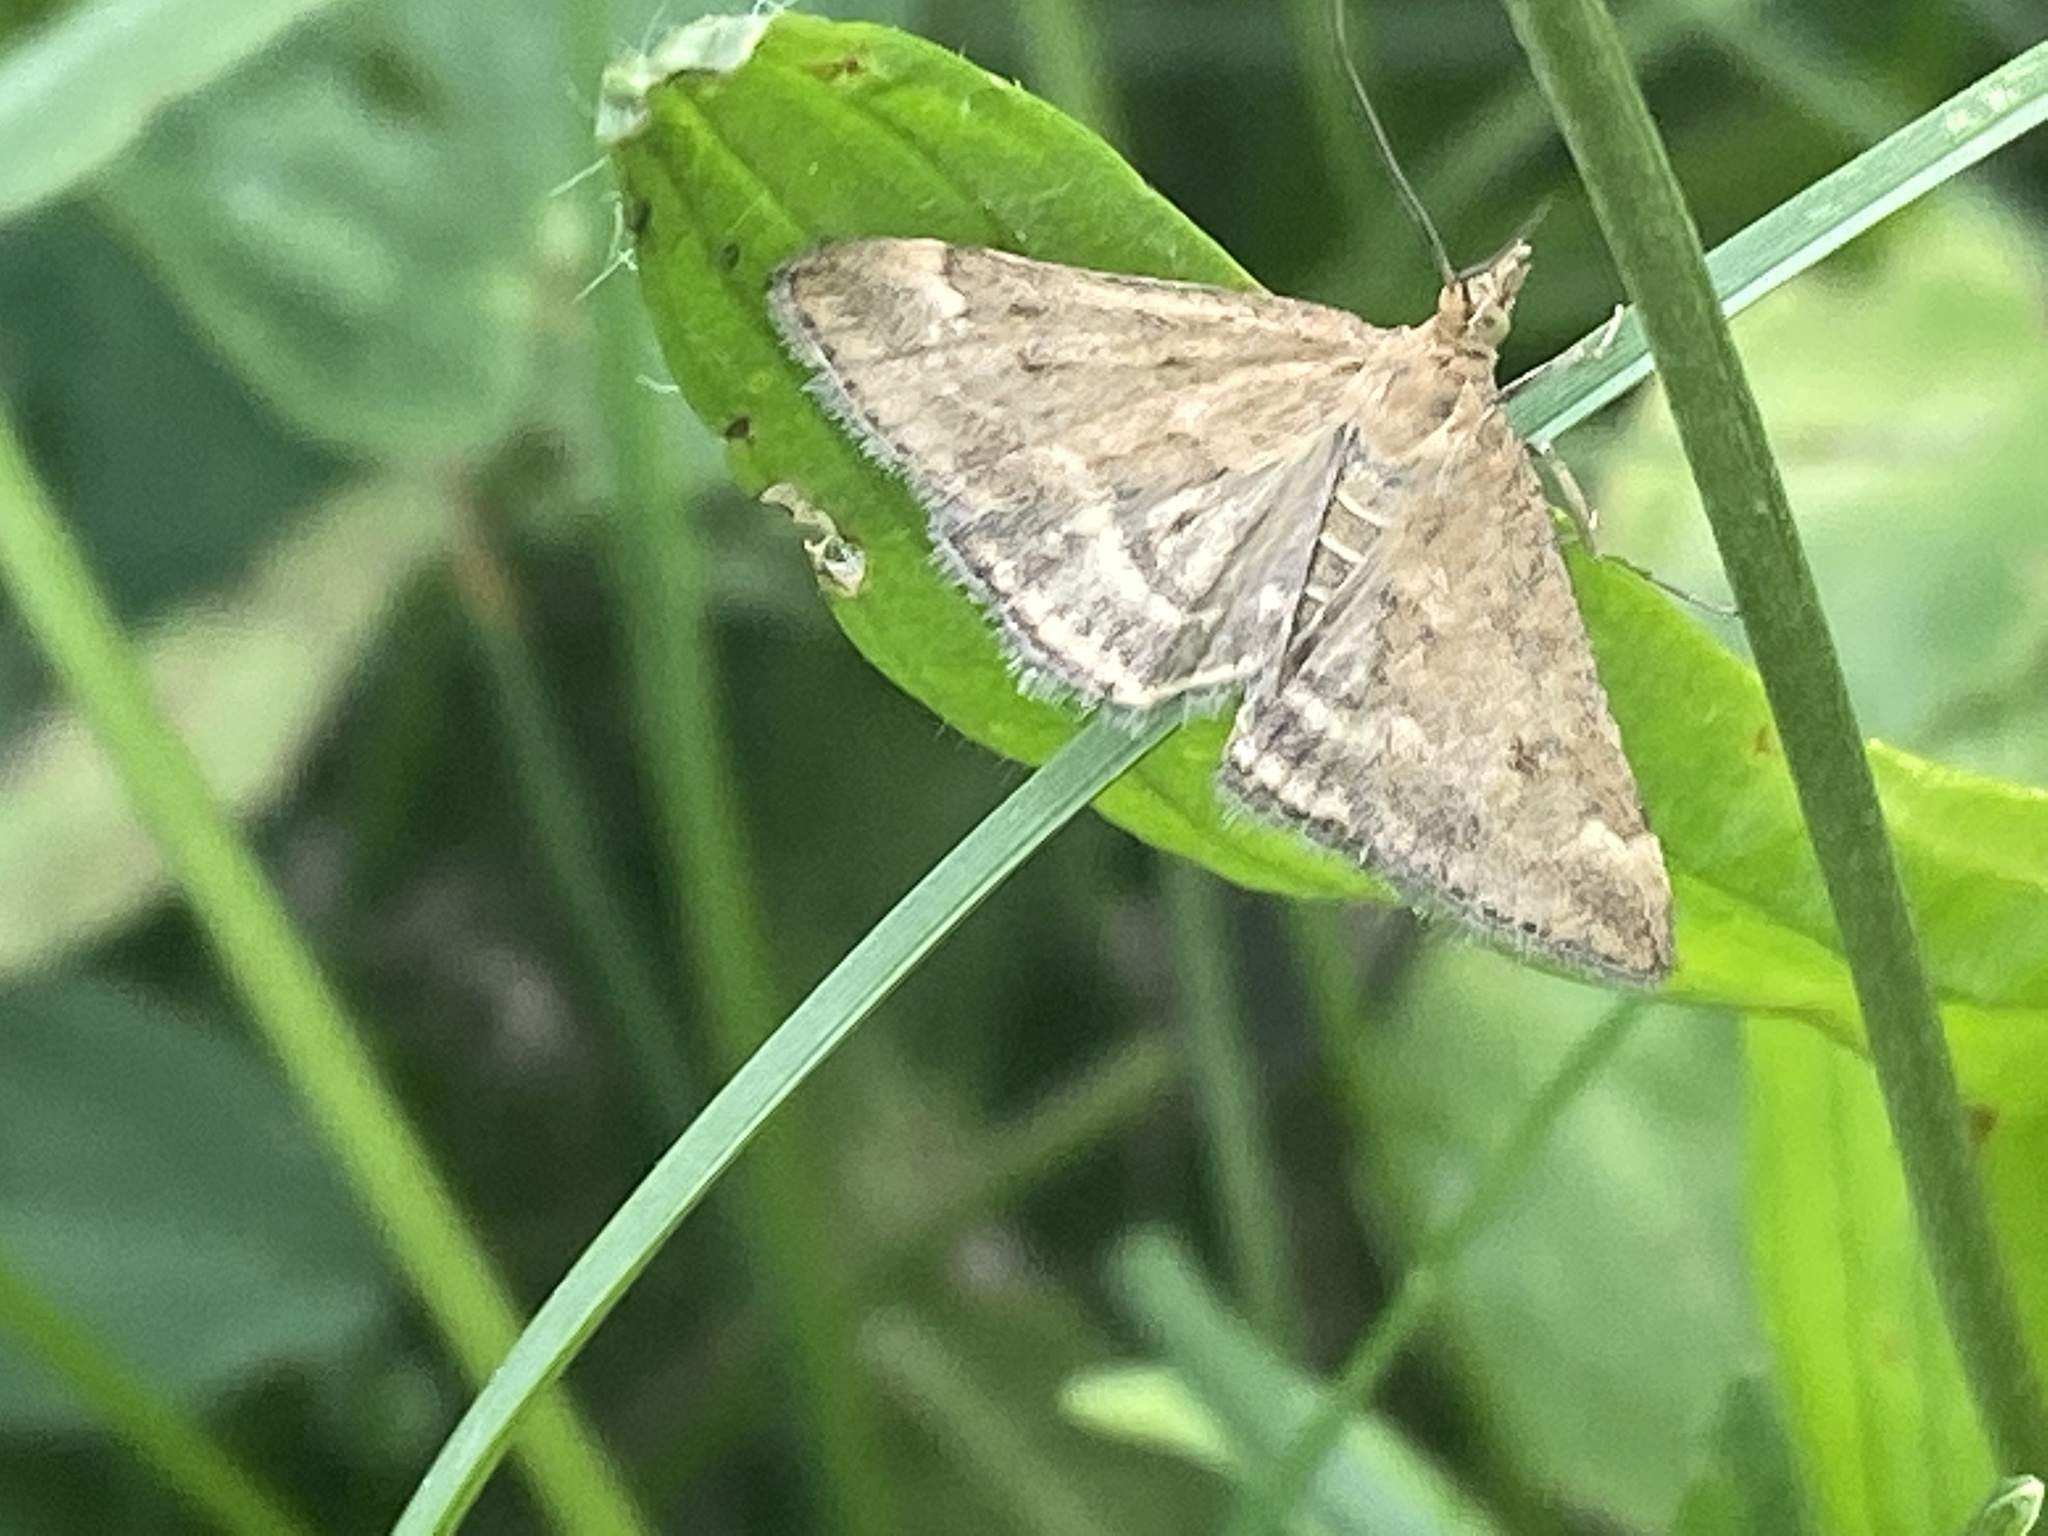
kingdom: Animalia
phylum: Arthropoda
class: Insecta
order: Lepidoptera
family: Crambidae
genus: Pyrausta
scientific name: Pyrausta despicata
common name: Straw-barred pearl
